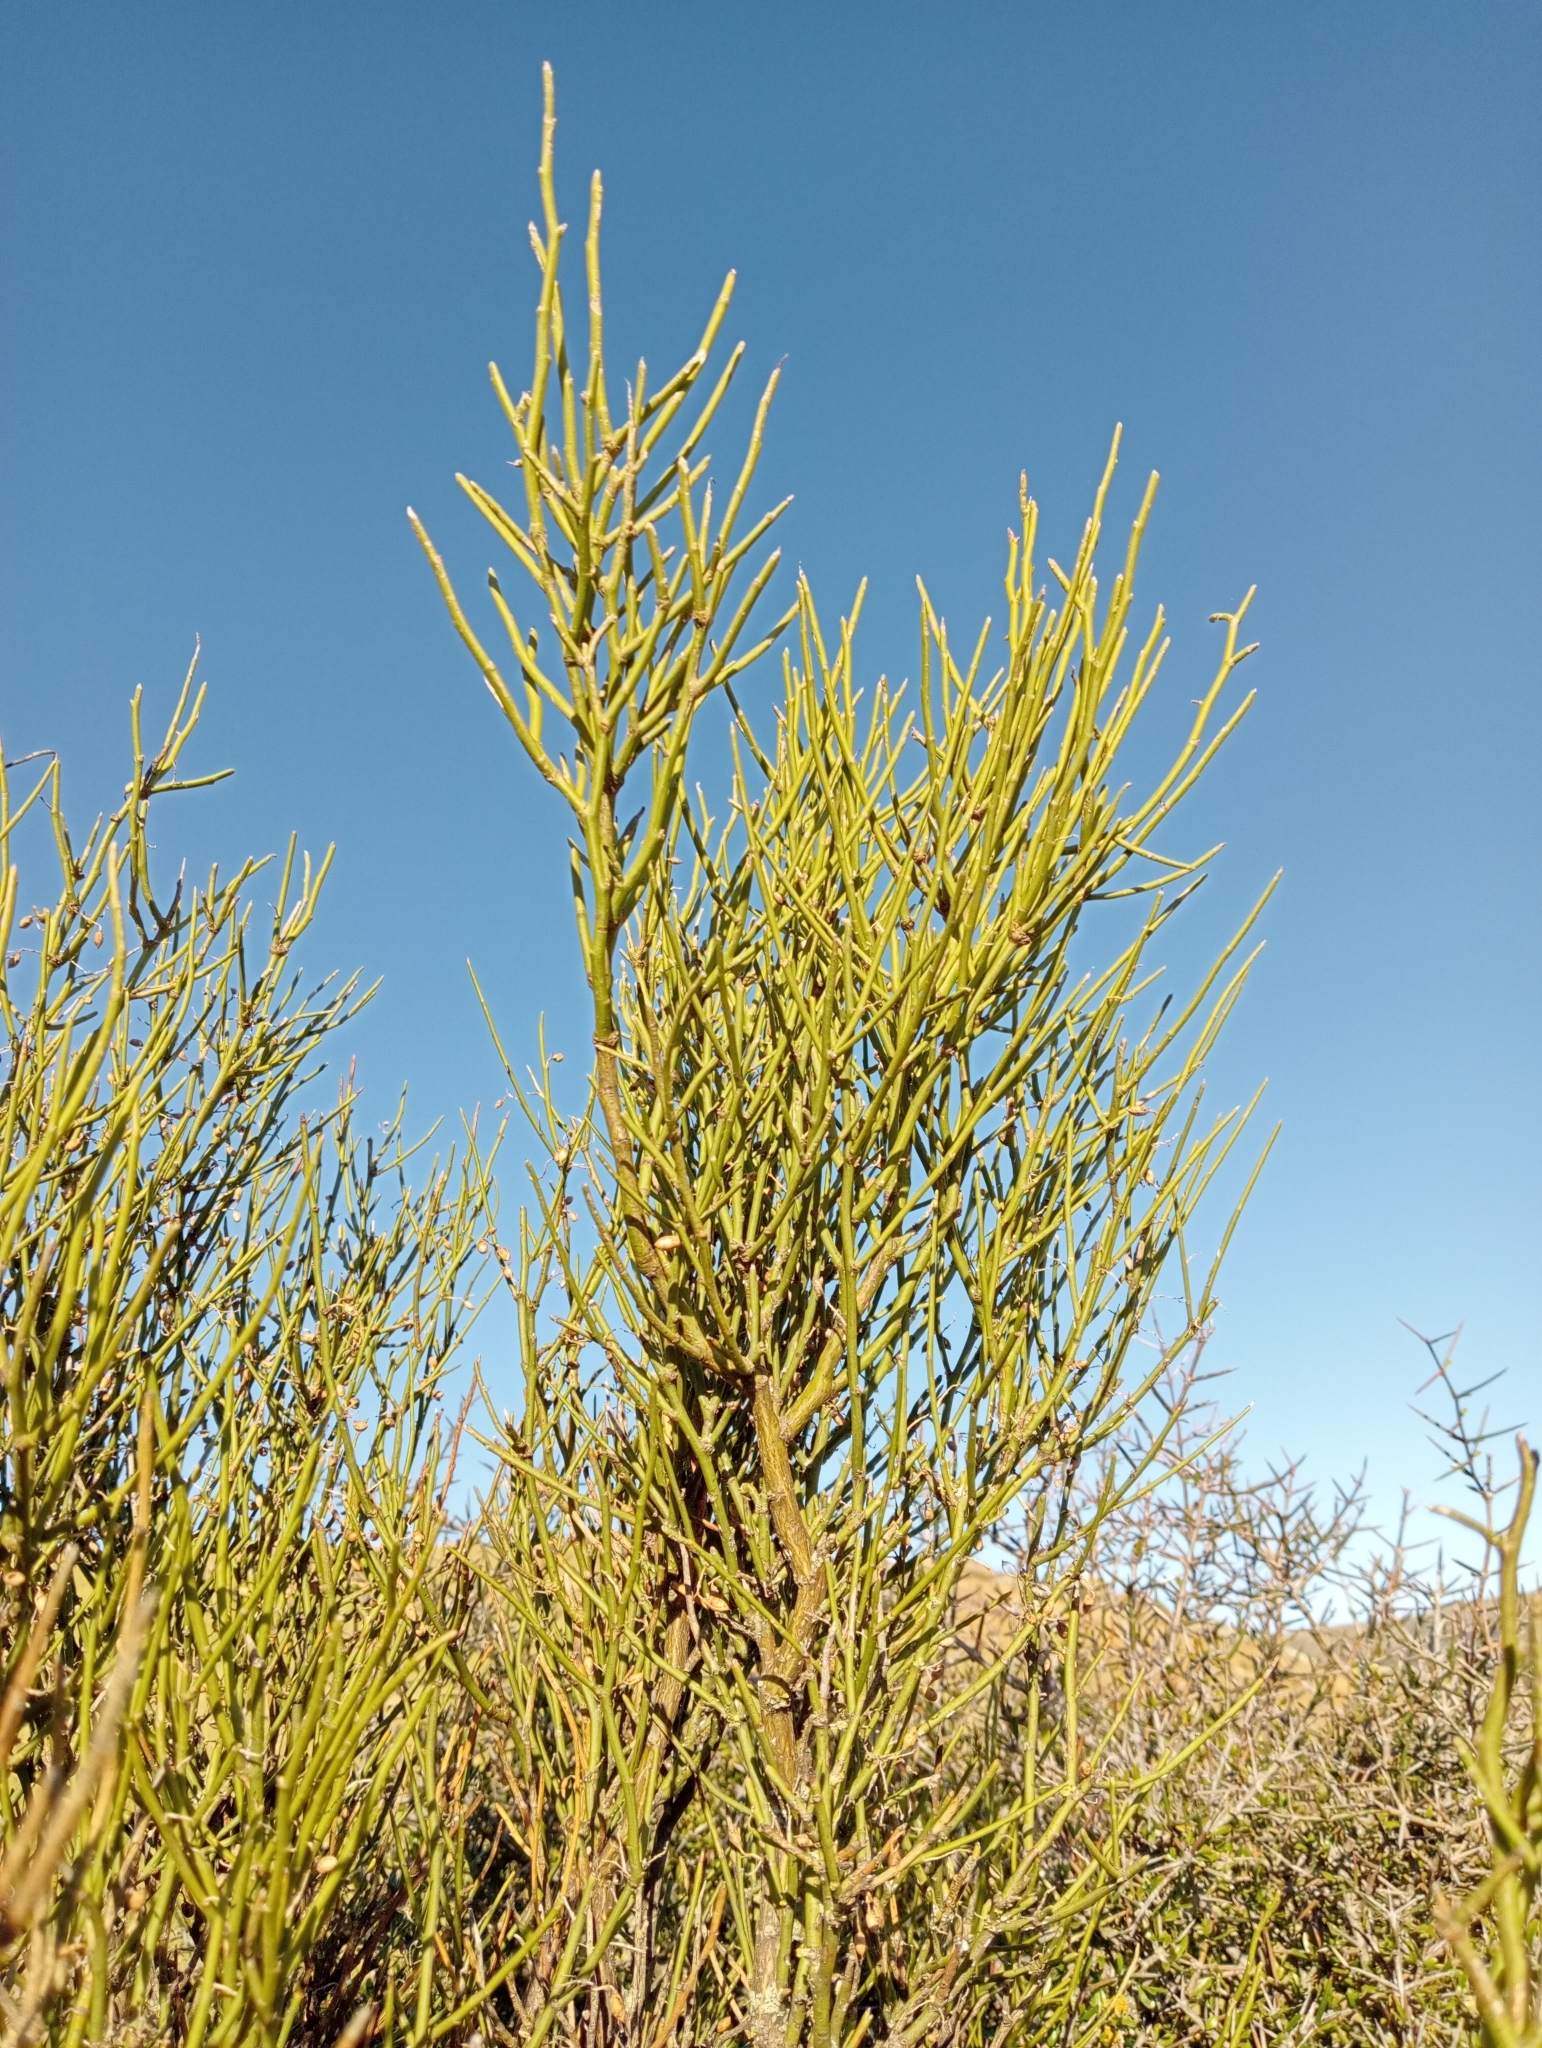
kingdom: Plantae
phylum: Tracheophyta
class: Magnoliopsida
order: Fabales
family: Fabaceae
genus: Carmichaelia
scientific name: Carmichaelia petriei
